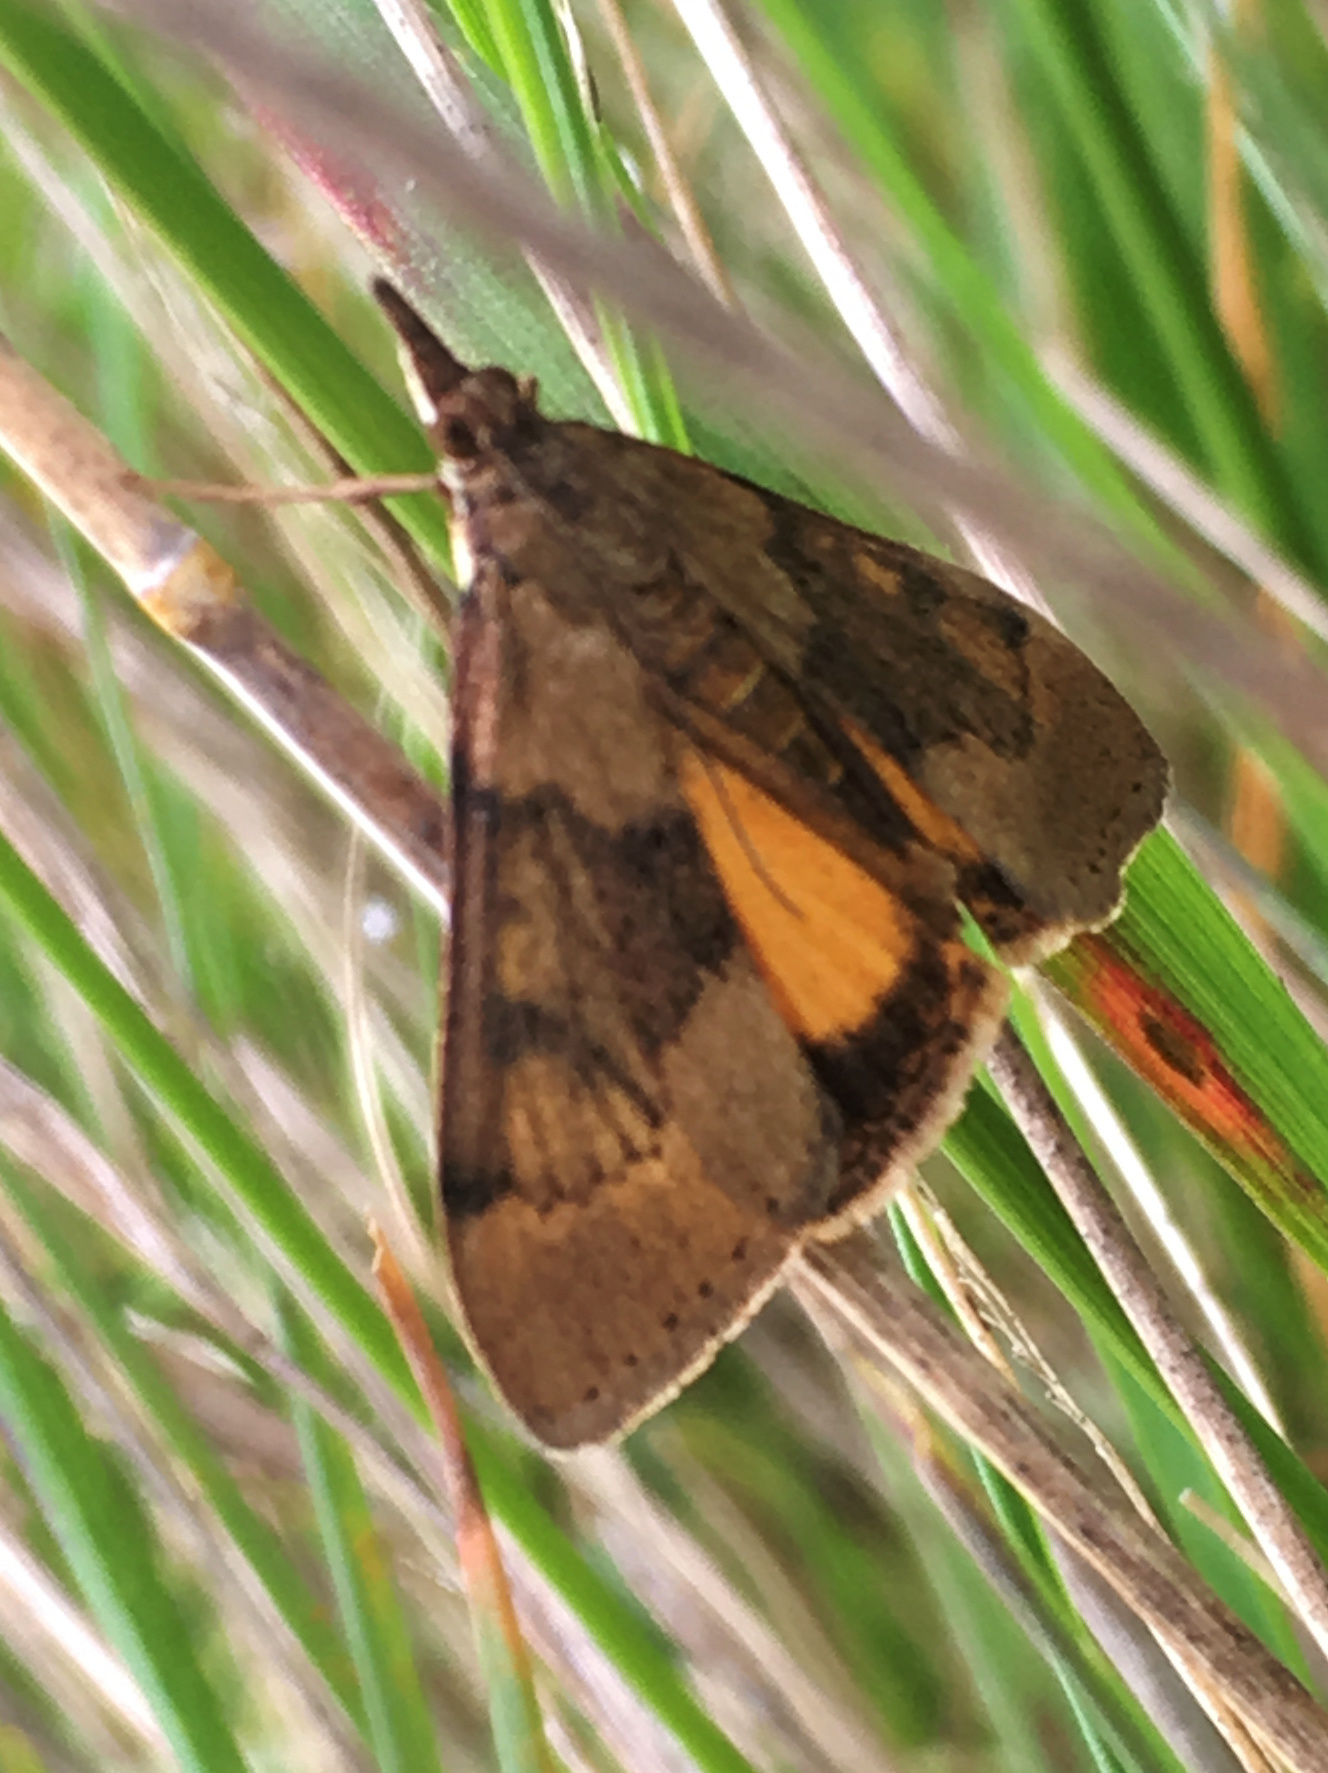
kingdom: Animalia
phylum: Arthropoda
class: Insecta
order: Lepidoptera
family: Crambidae
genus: Uresiphita
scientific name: Uresiphita
